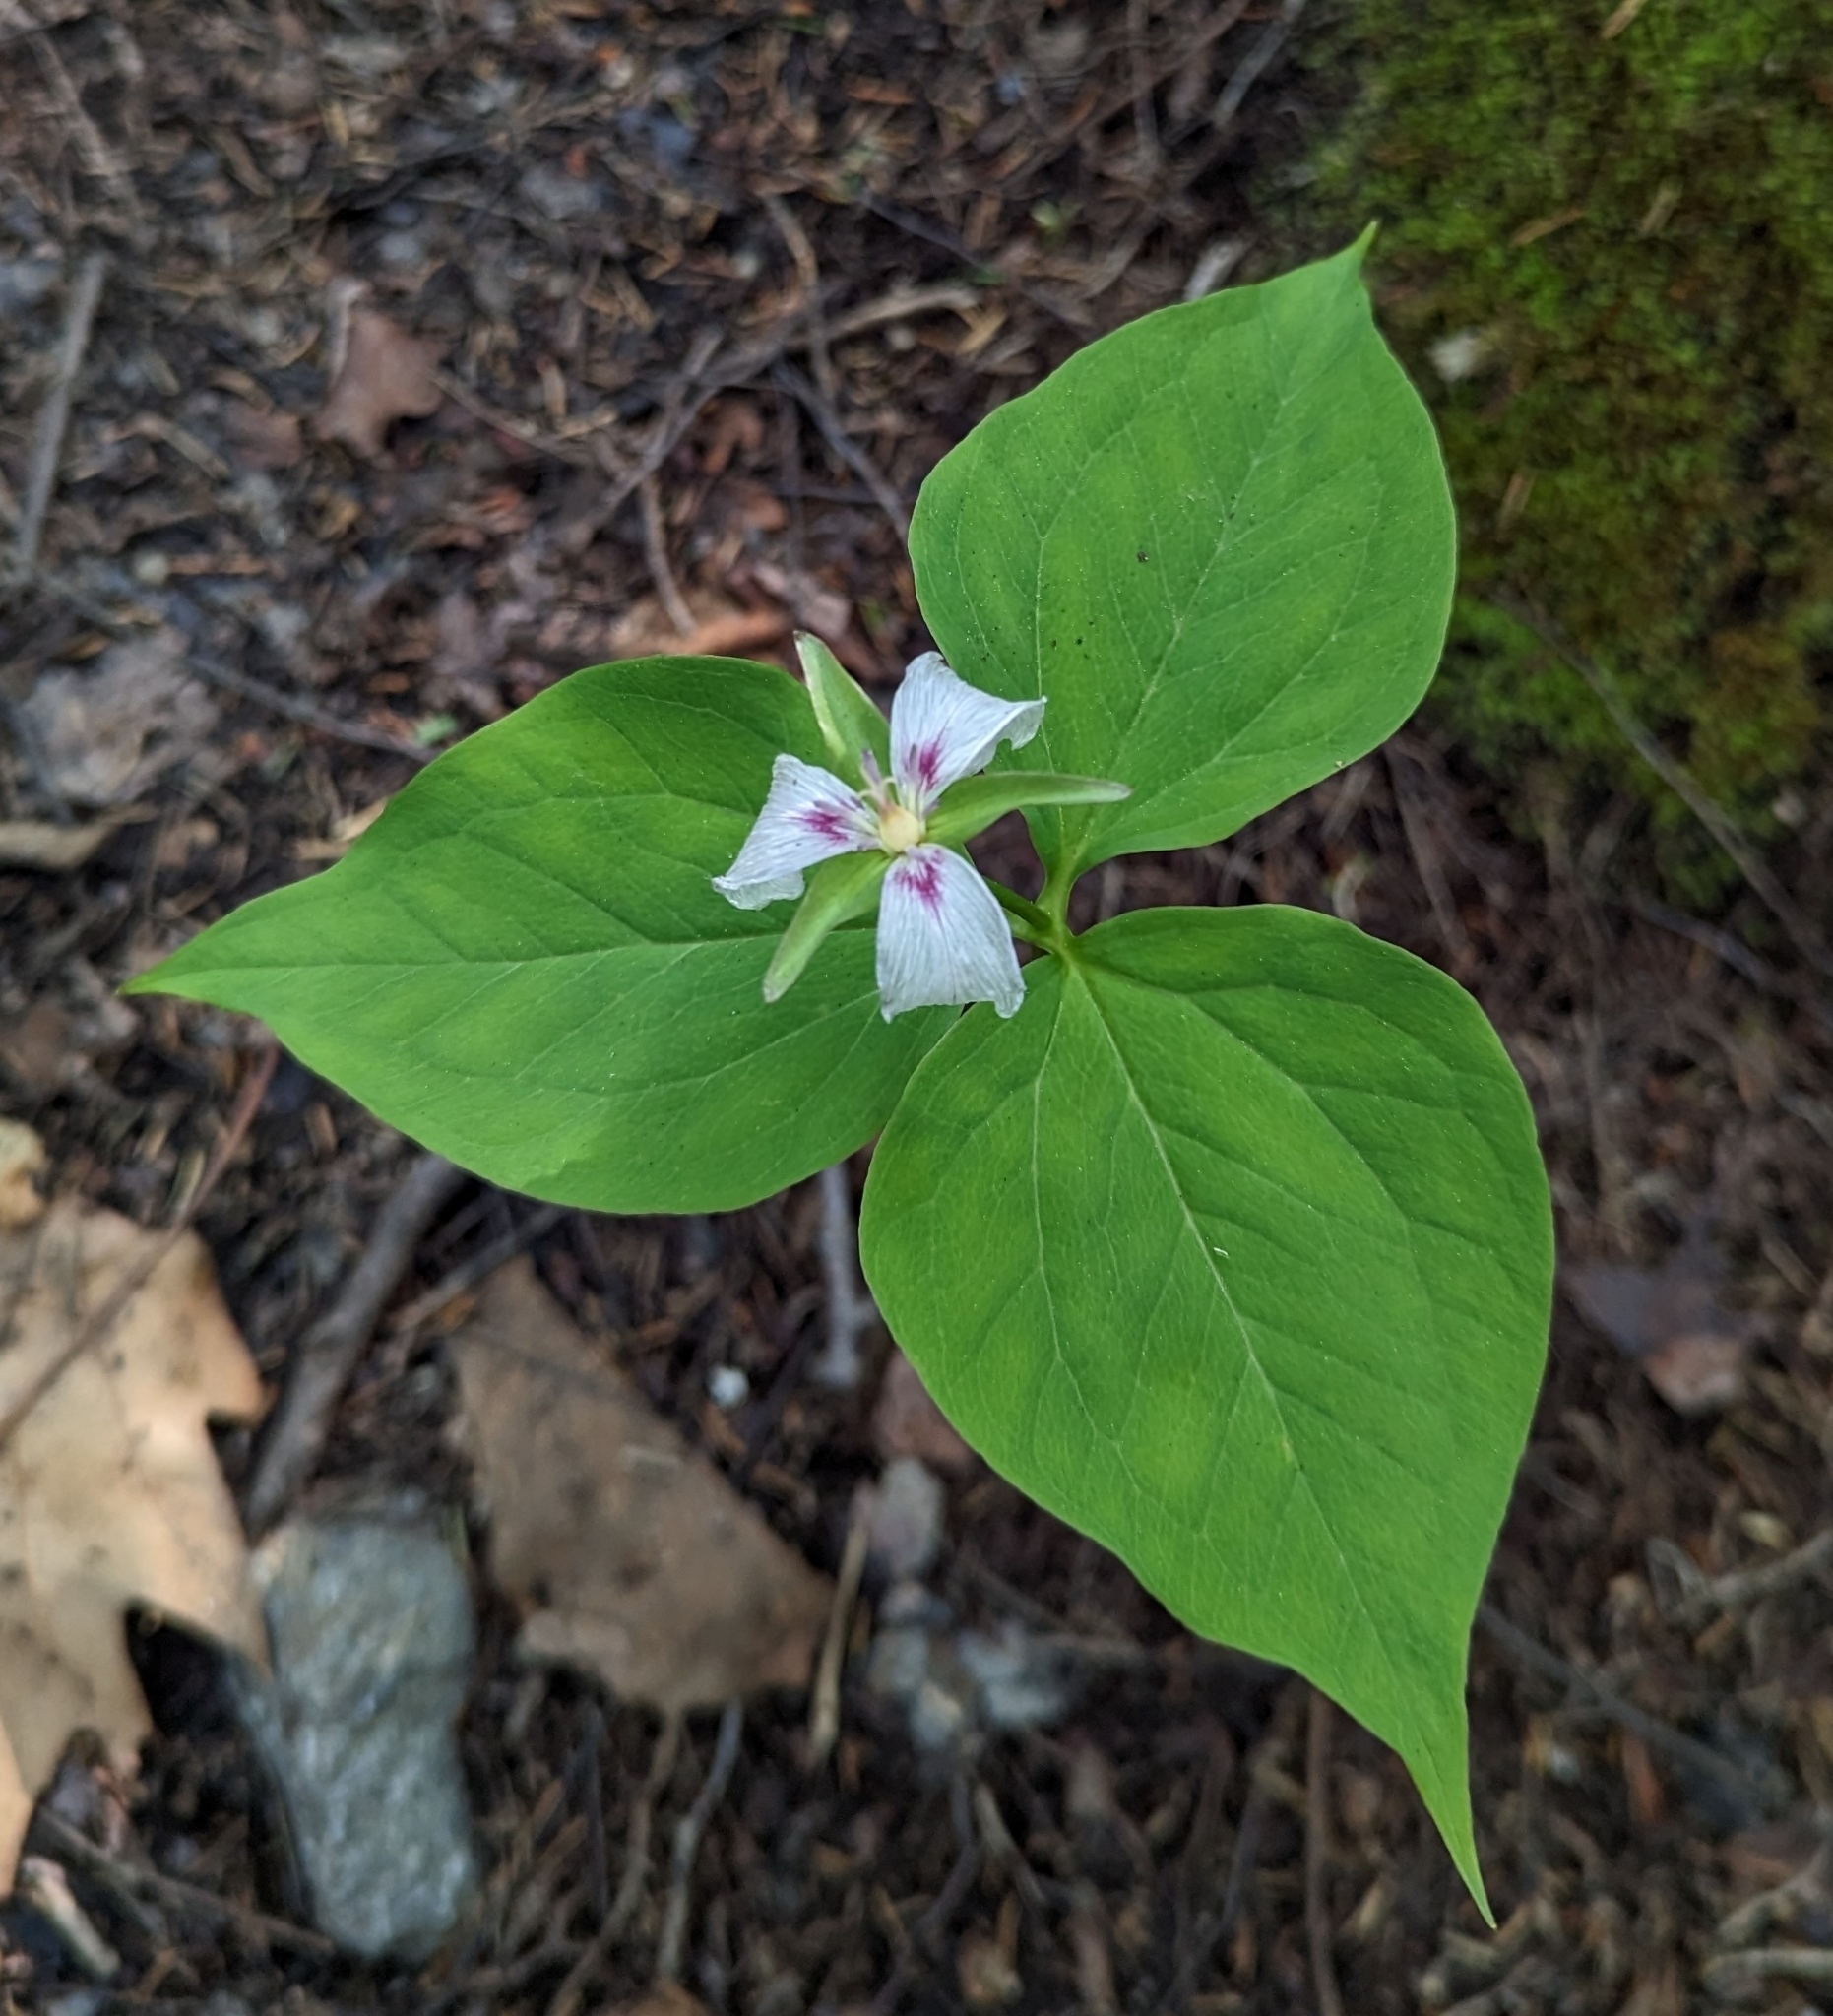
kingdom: Plantae
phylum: Tracheophyta
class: Liliopsida
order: Liliales
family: Melanthiaceae
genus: Trillium
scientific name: Trillium undulatum
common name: Paint trillium
